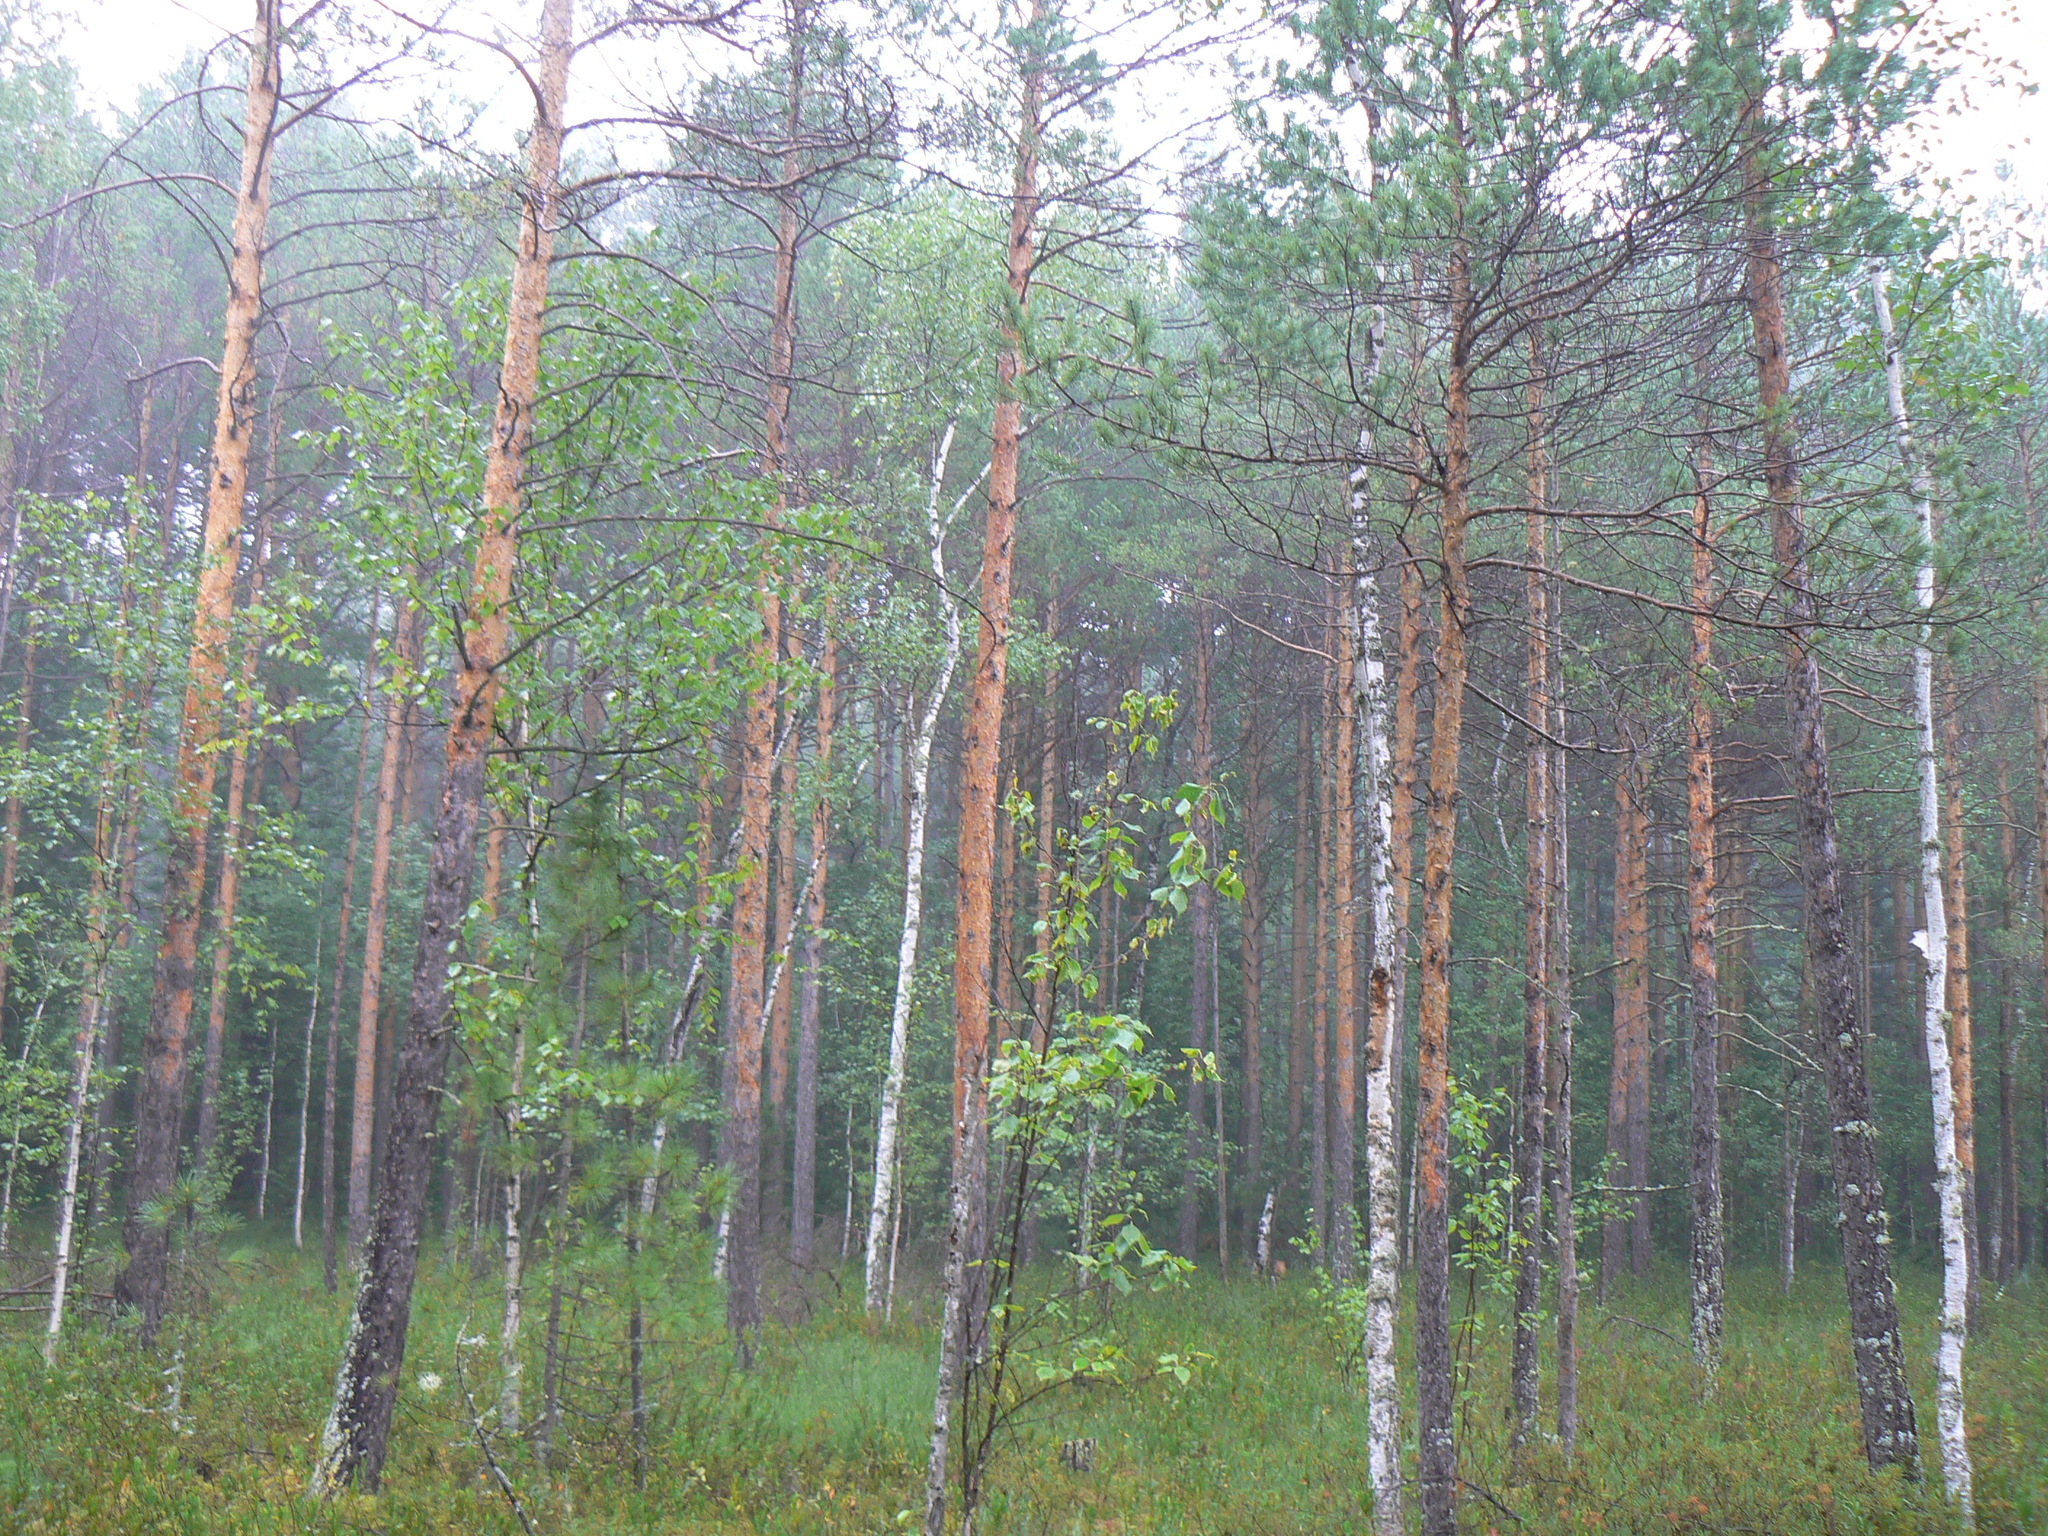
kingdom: Plantae
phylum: Tracheophyta
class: Pinopsida
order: Pinales
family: Pinaceae
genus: Pinus
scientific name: Pinus sylvestris
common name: Scots pine
